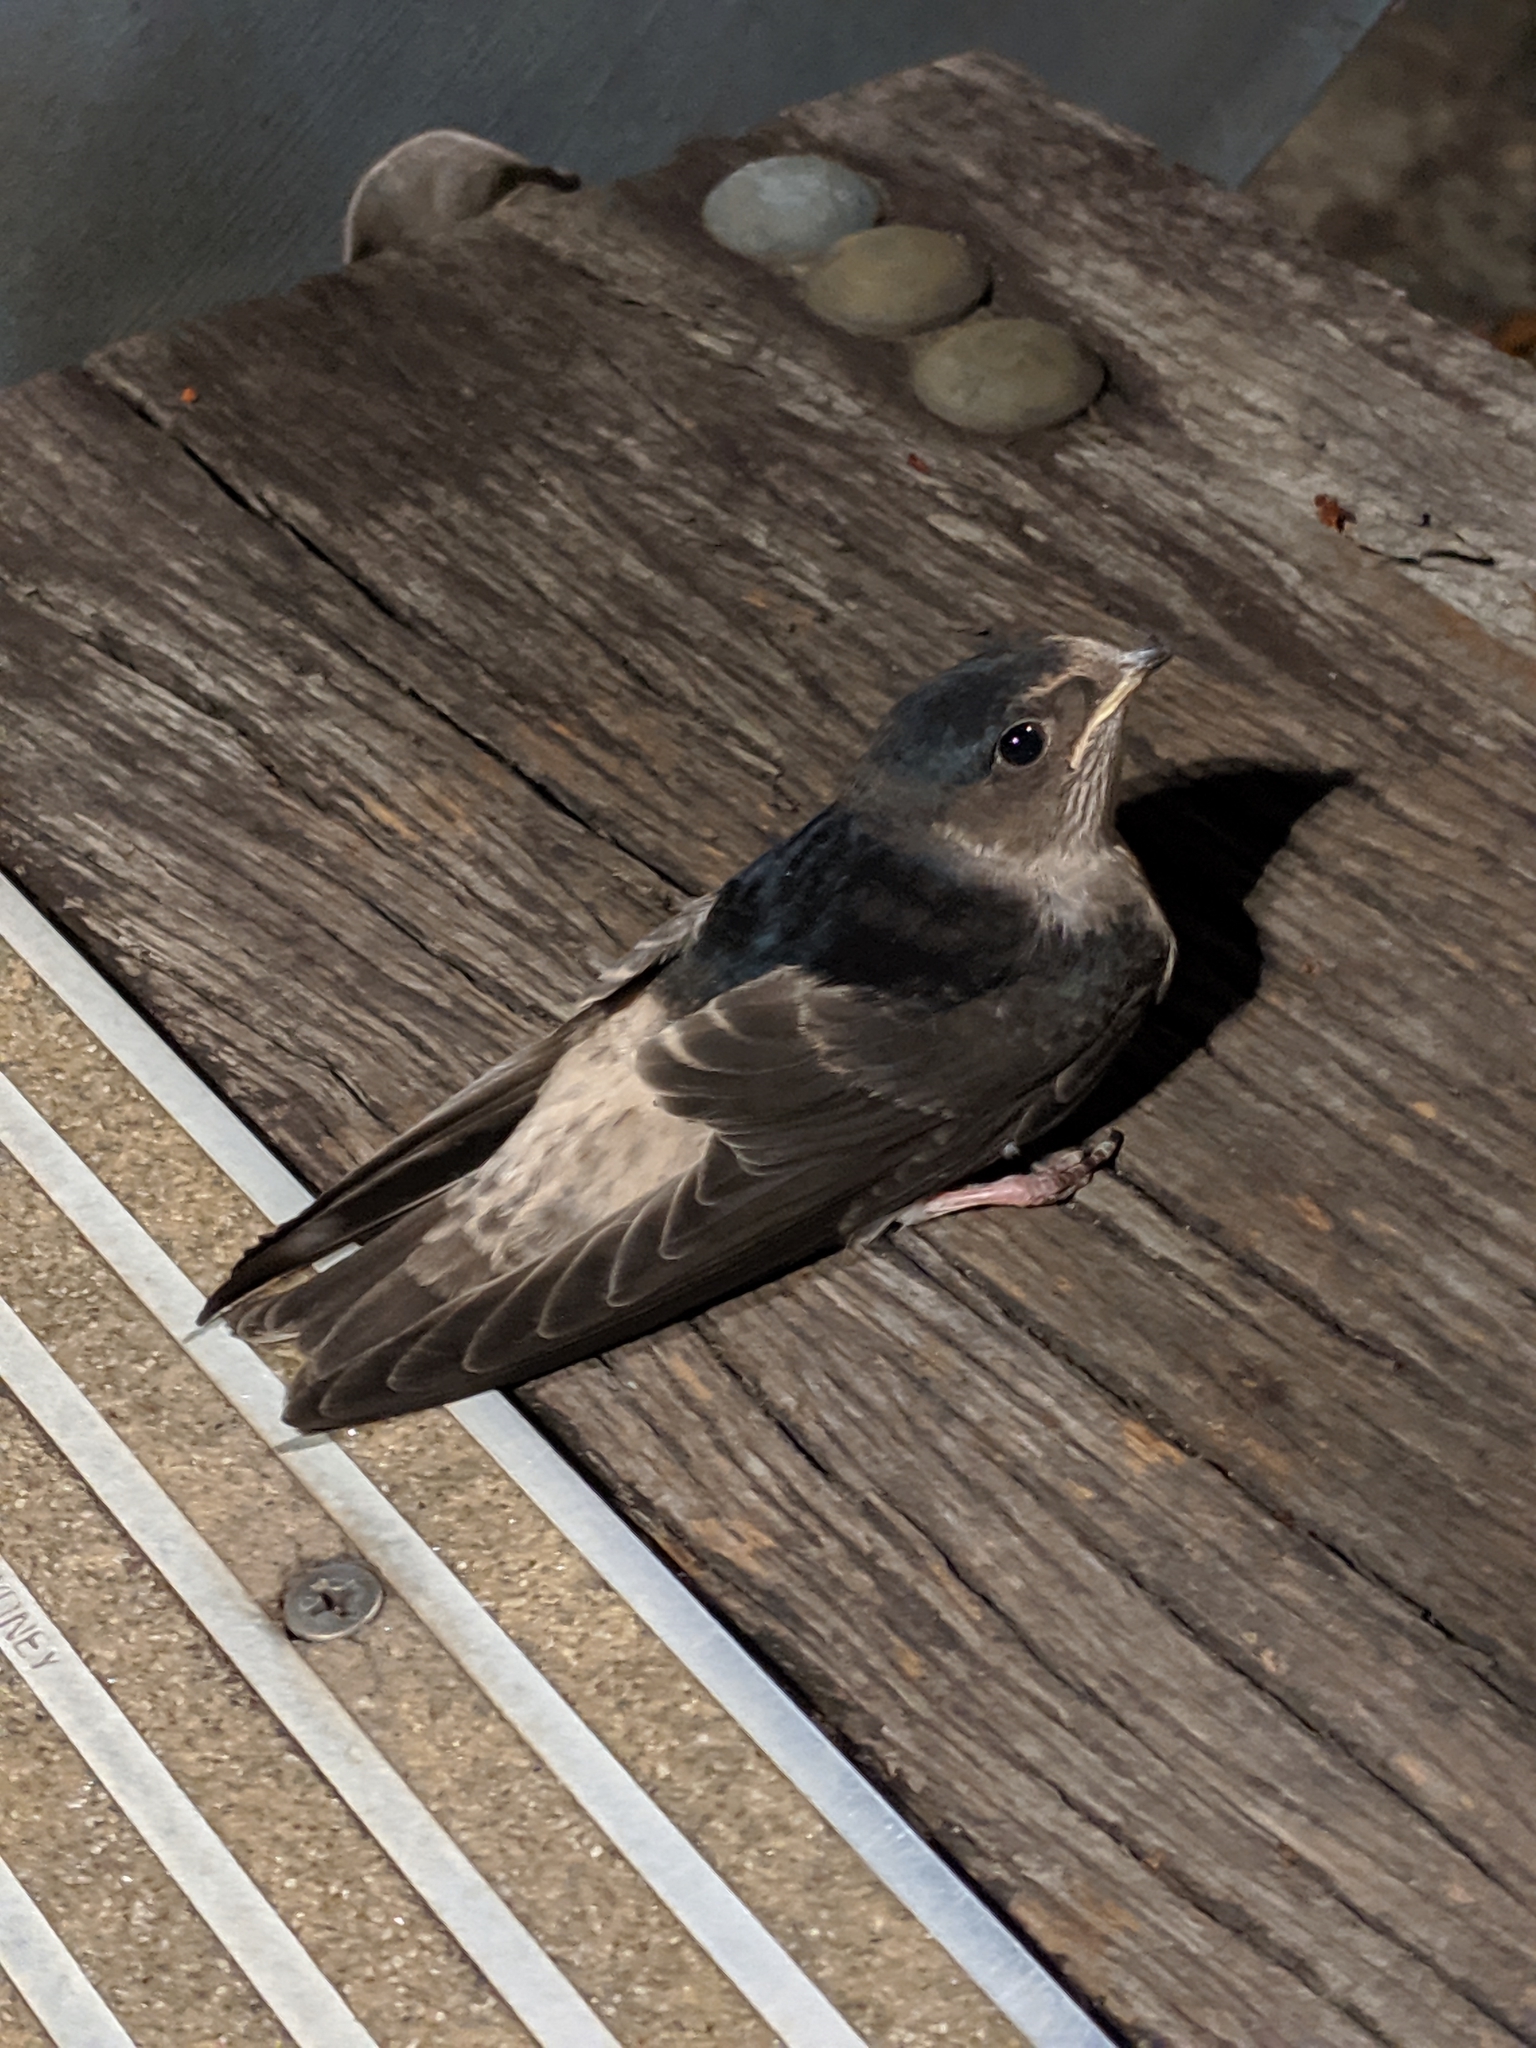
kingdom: Animalia
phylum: Chordata
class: Aves
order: Passeriformes
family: Hirundinidae
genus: Petrochelidon
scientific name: Petrochelidon nigricans
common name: Tree martin
